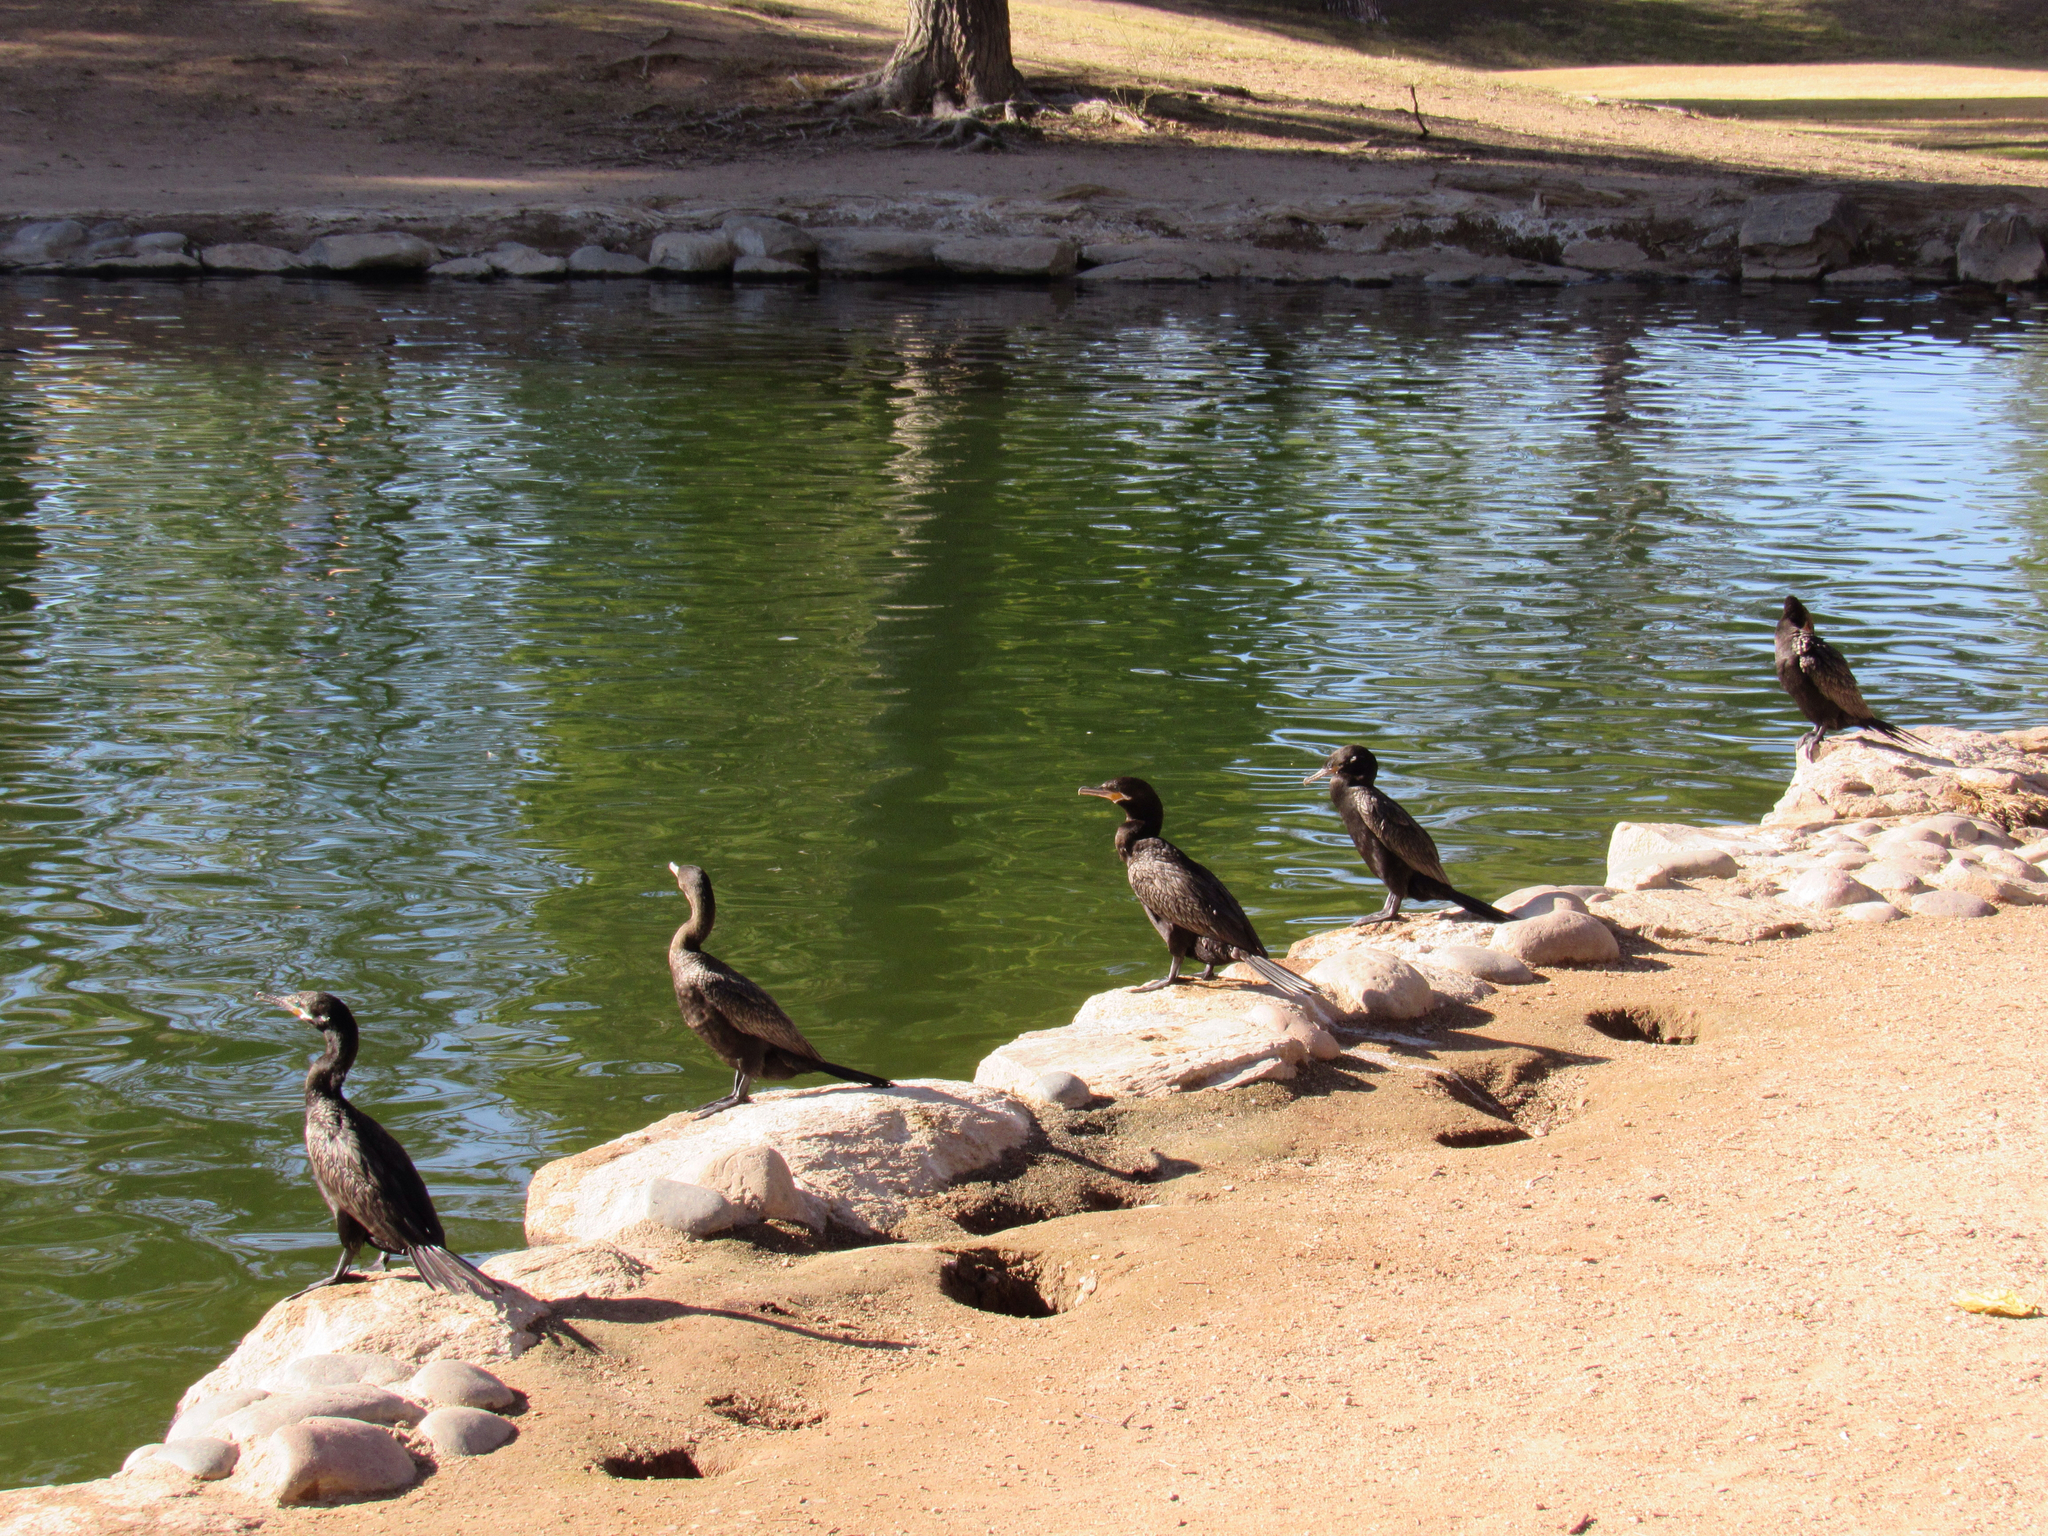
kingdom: Animalia
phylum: Chordata
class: Aves
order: Suliformes
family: Phalacrocoracidae
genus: Phalacrocorax
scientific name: Phalacrocorax brasilianus
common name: Neotropic cormorant
